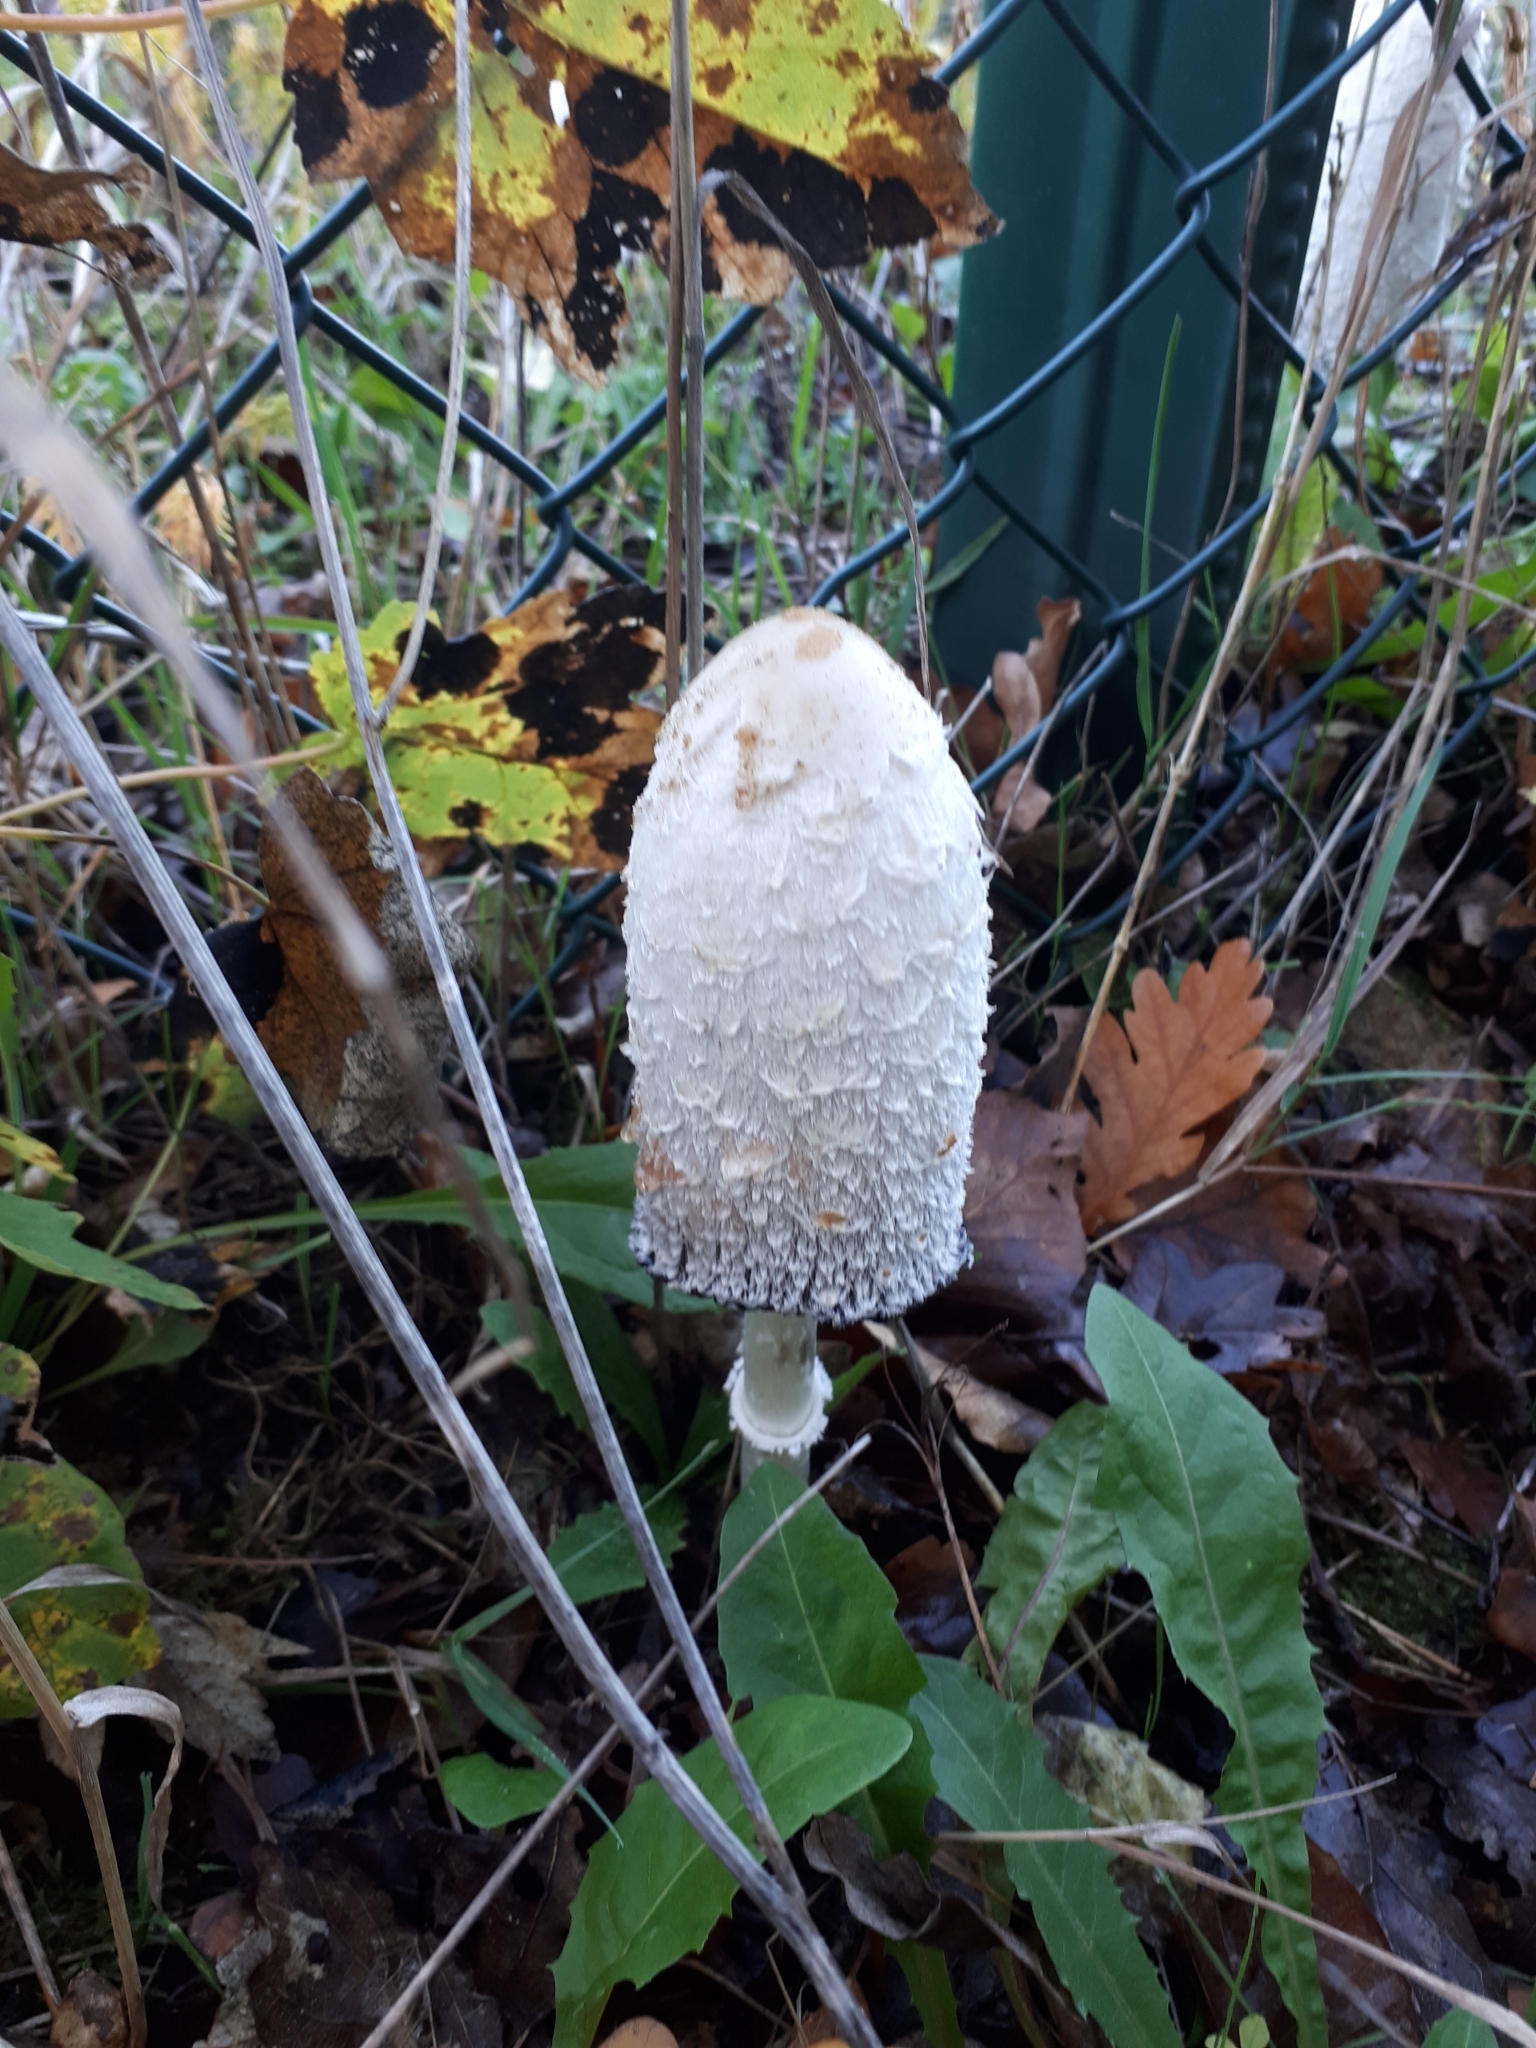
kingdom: Fungi
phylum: Basidiomycota
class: Agaricomycetes
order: Agaricales
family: Agaricaceae
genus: Coprinus
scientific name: Coprinus comatus
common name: Lawyer's wig
